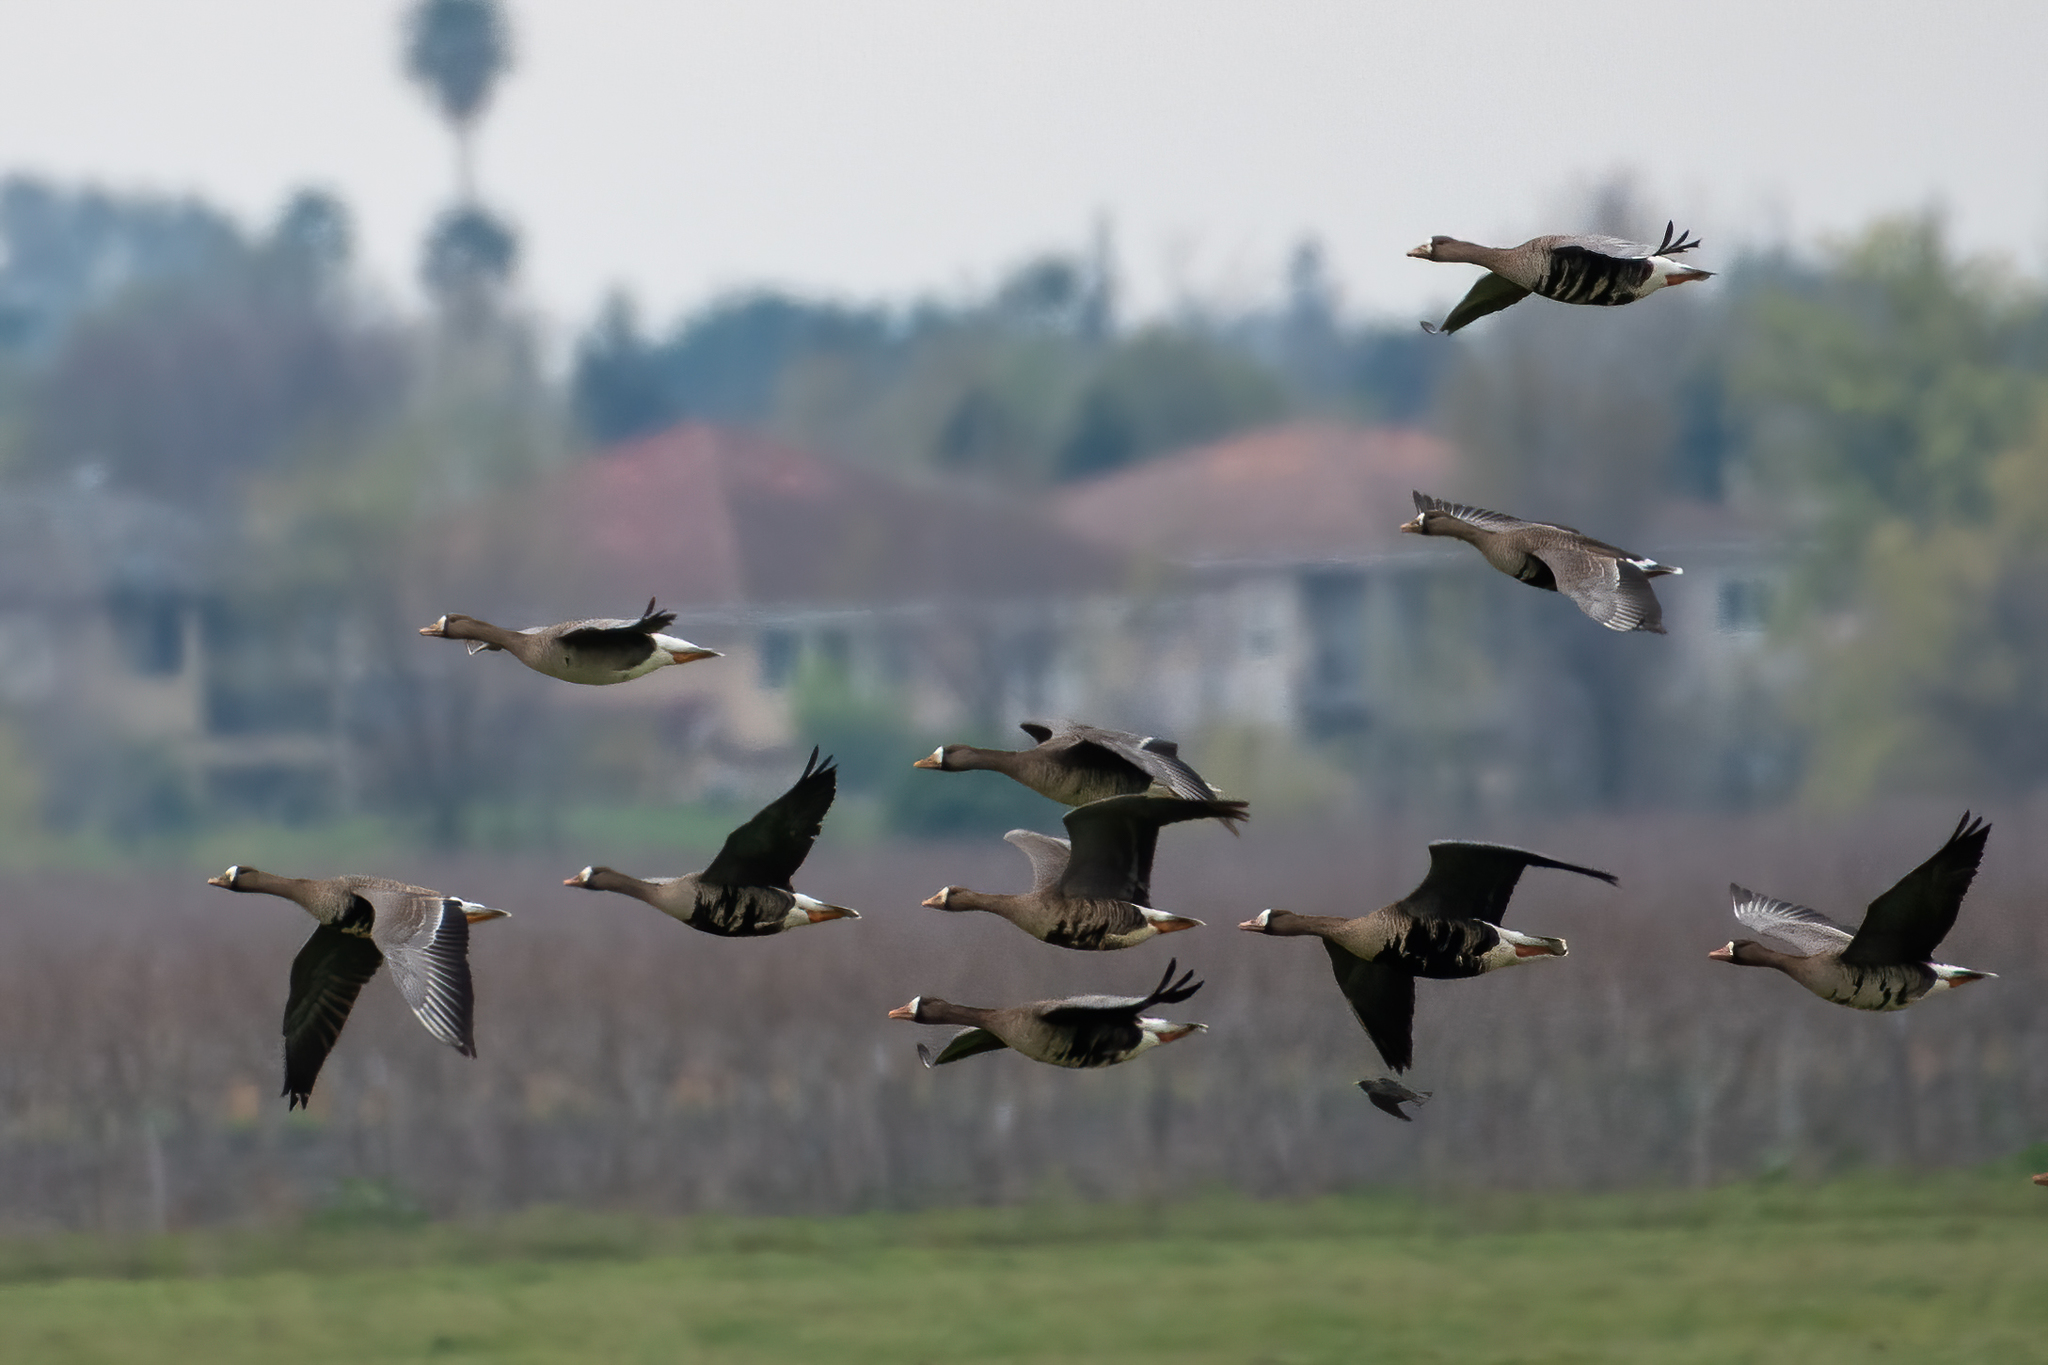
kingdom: Animalia
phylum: Chordata
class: Aves
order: Anseriformes
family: Anatidae
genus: Anser
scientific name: Anser albifrons
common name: Greater white-fronted goose
